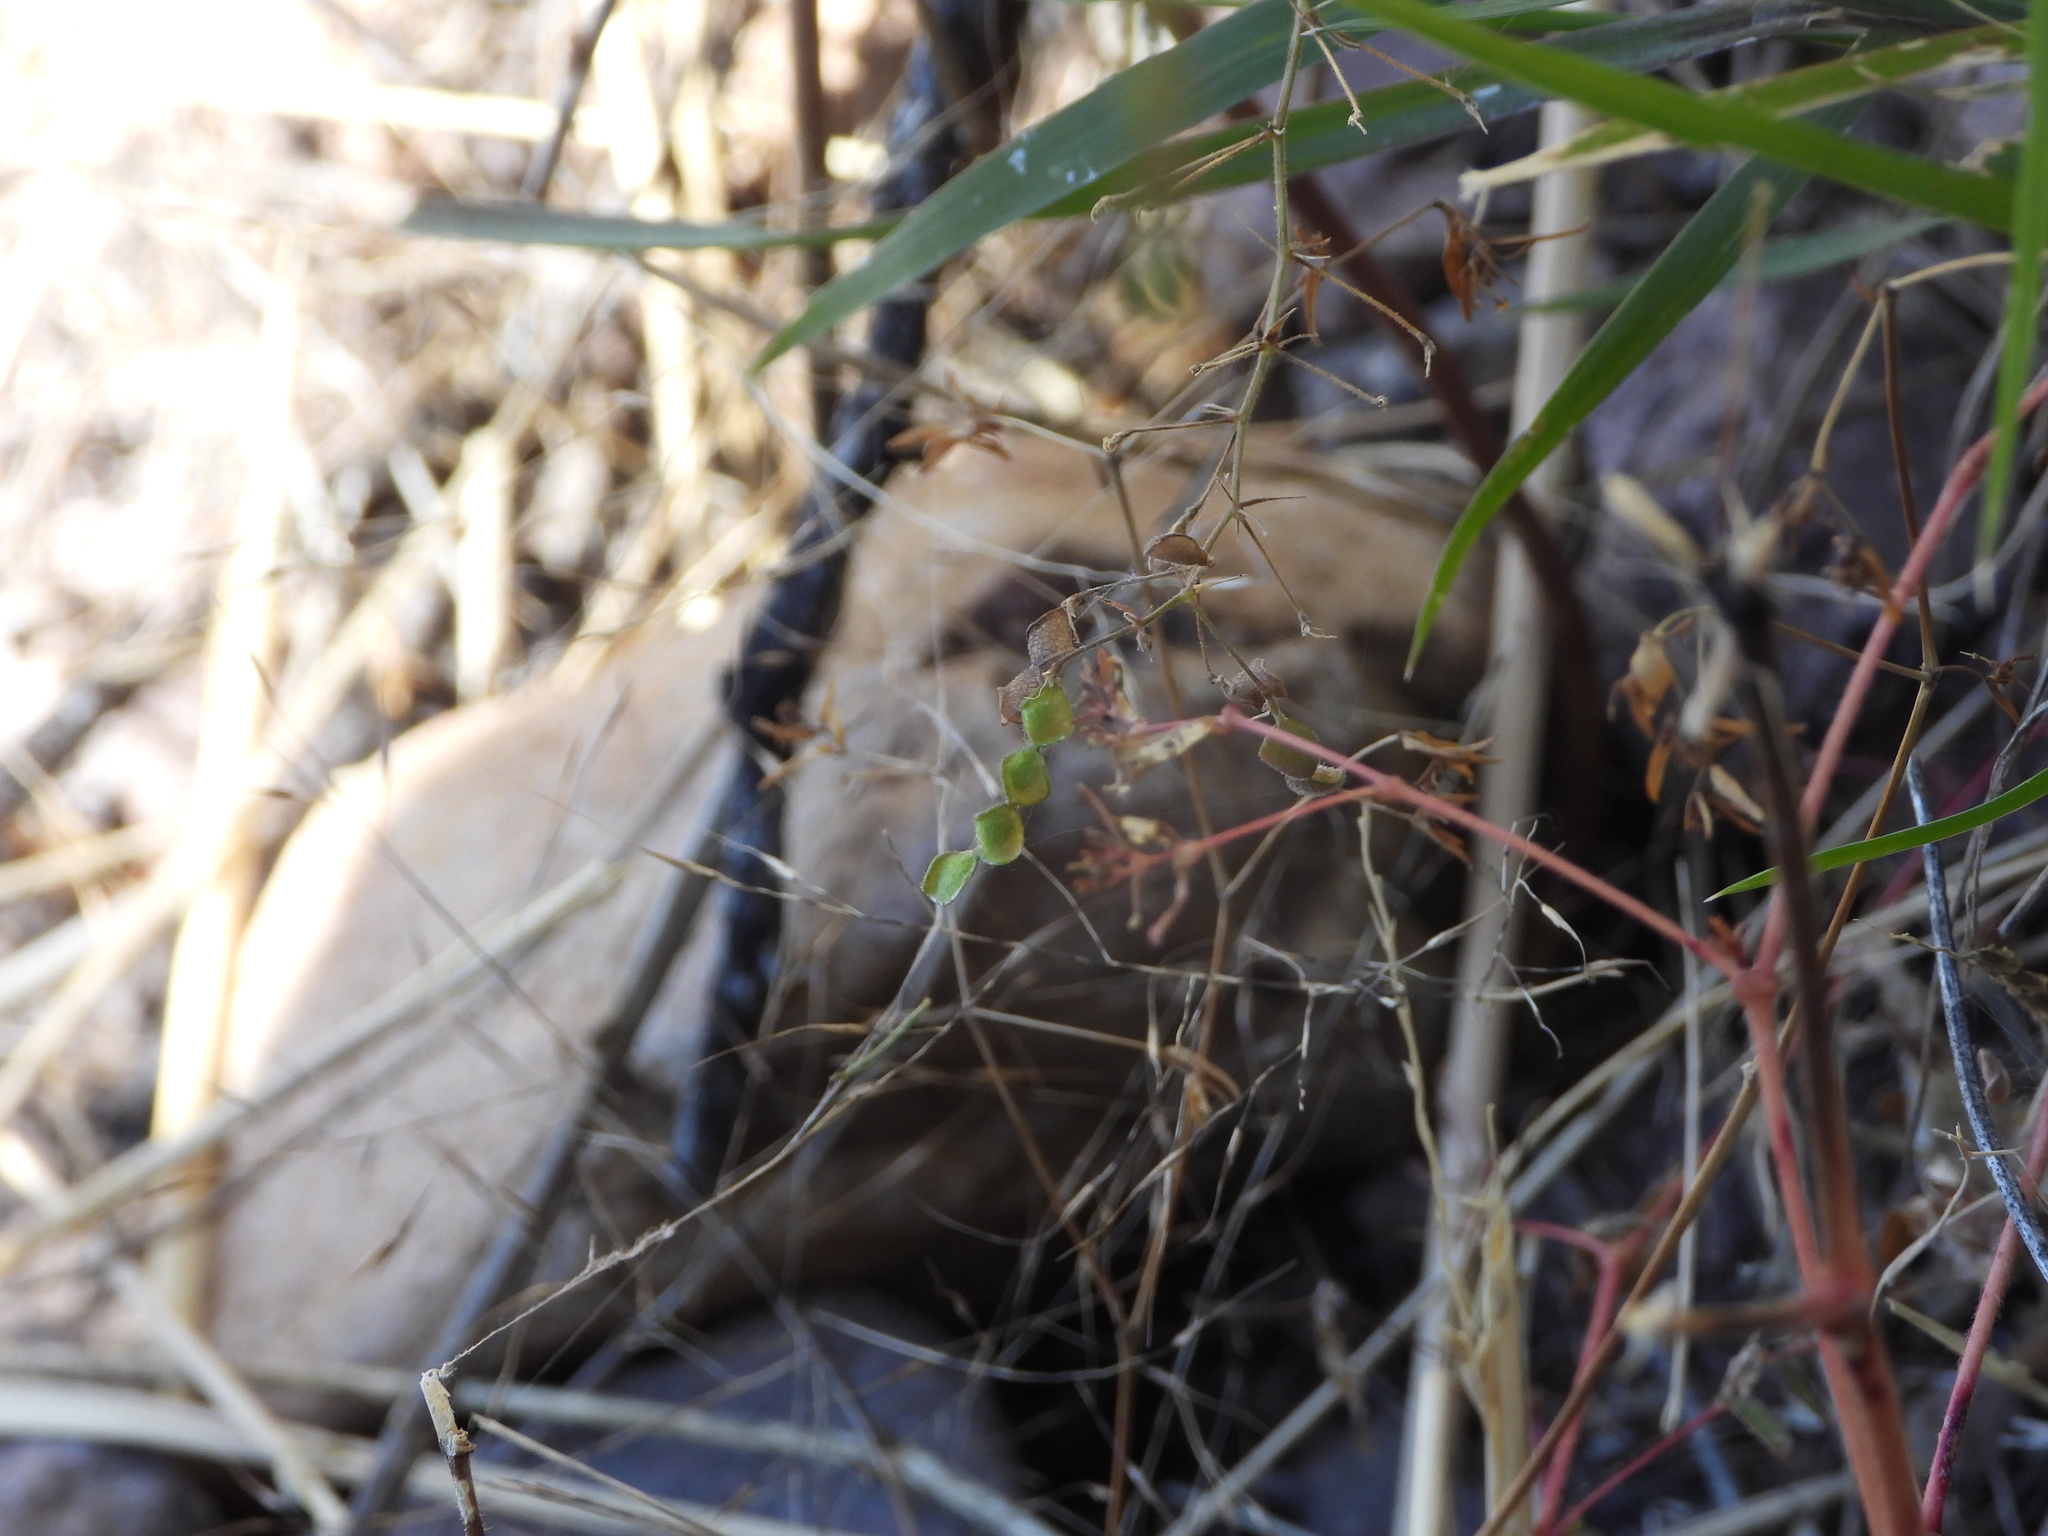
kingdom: Plantae
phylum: Tracheophyta
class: Magnoliopsida
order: Fabales
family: Fabaceae
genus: Desmodium
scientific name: Desmodium rosei
